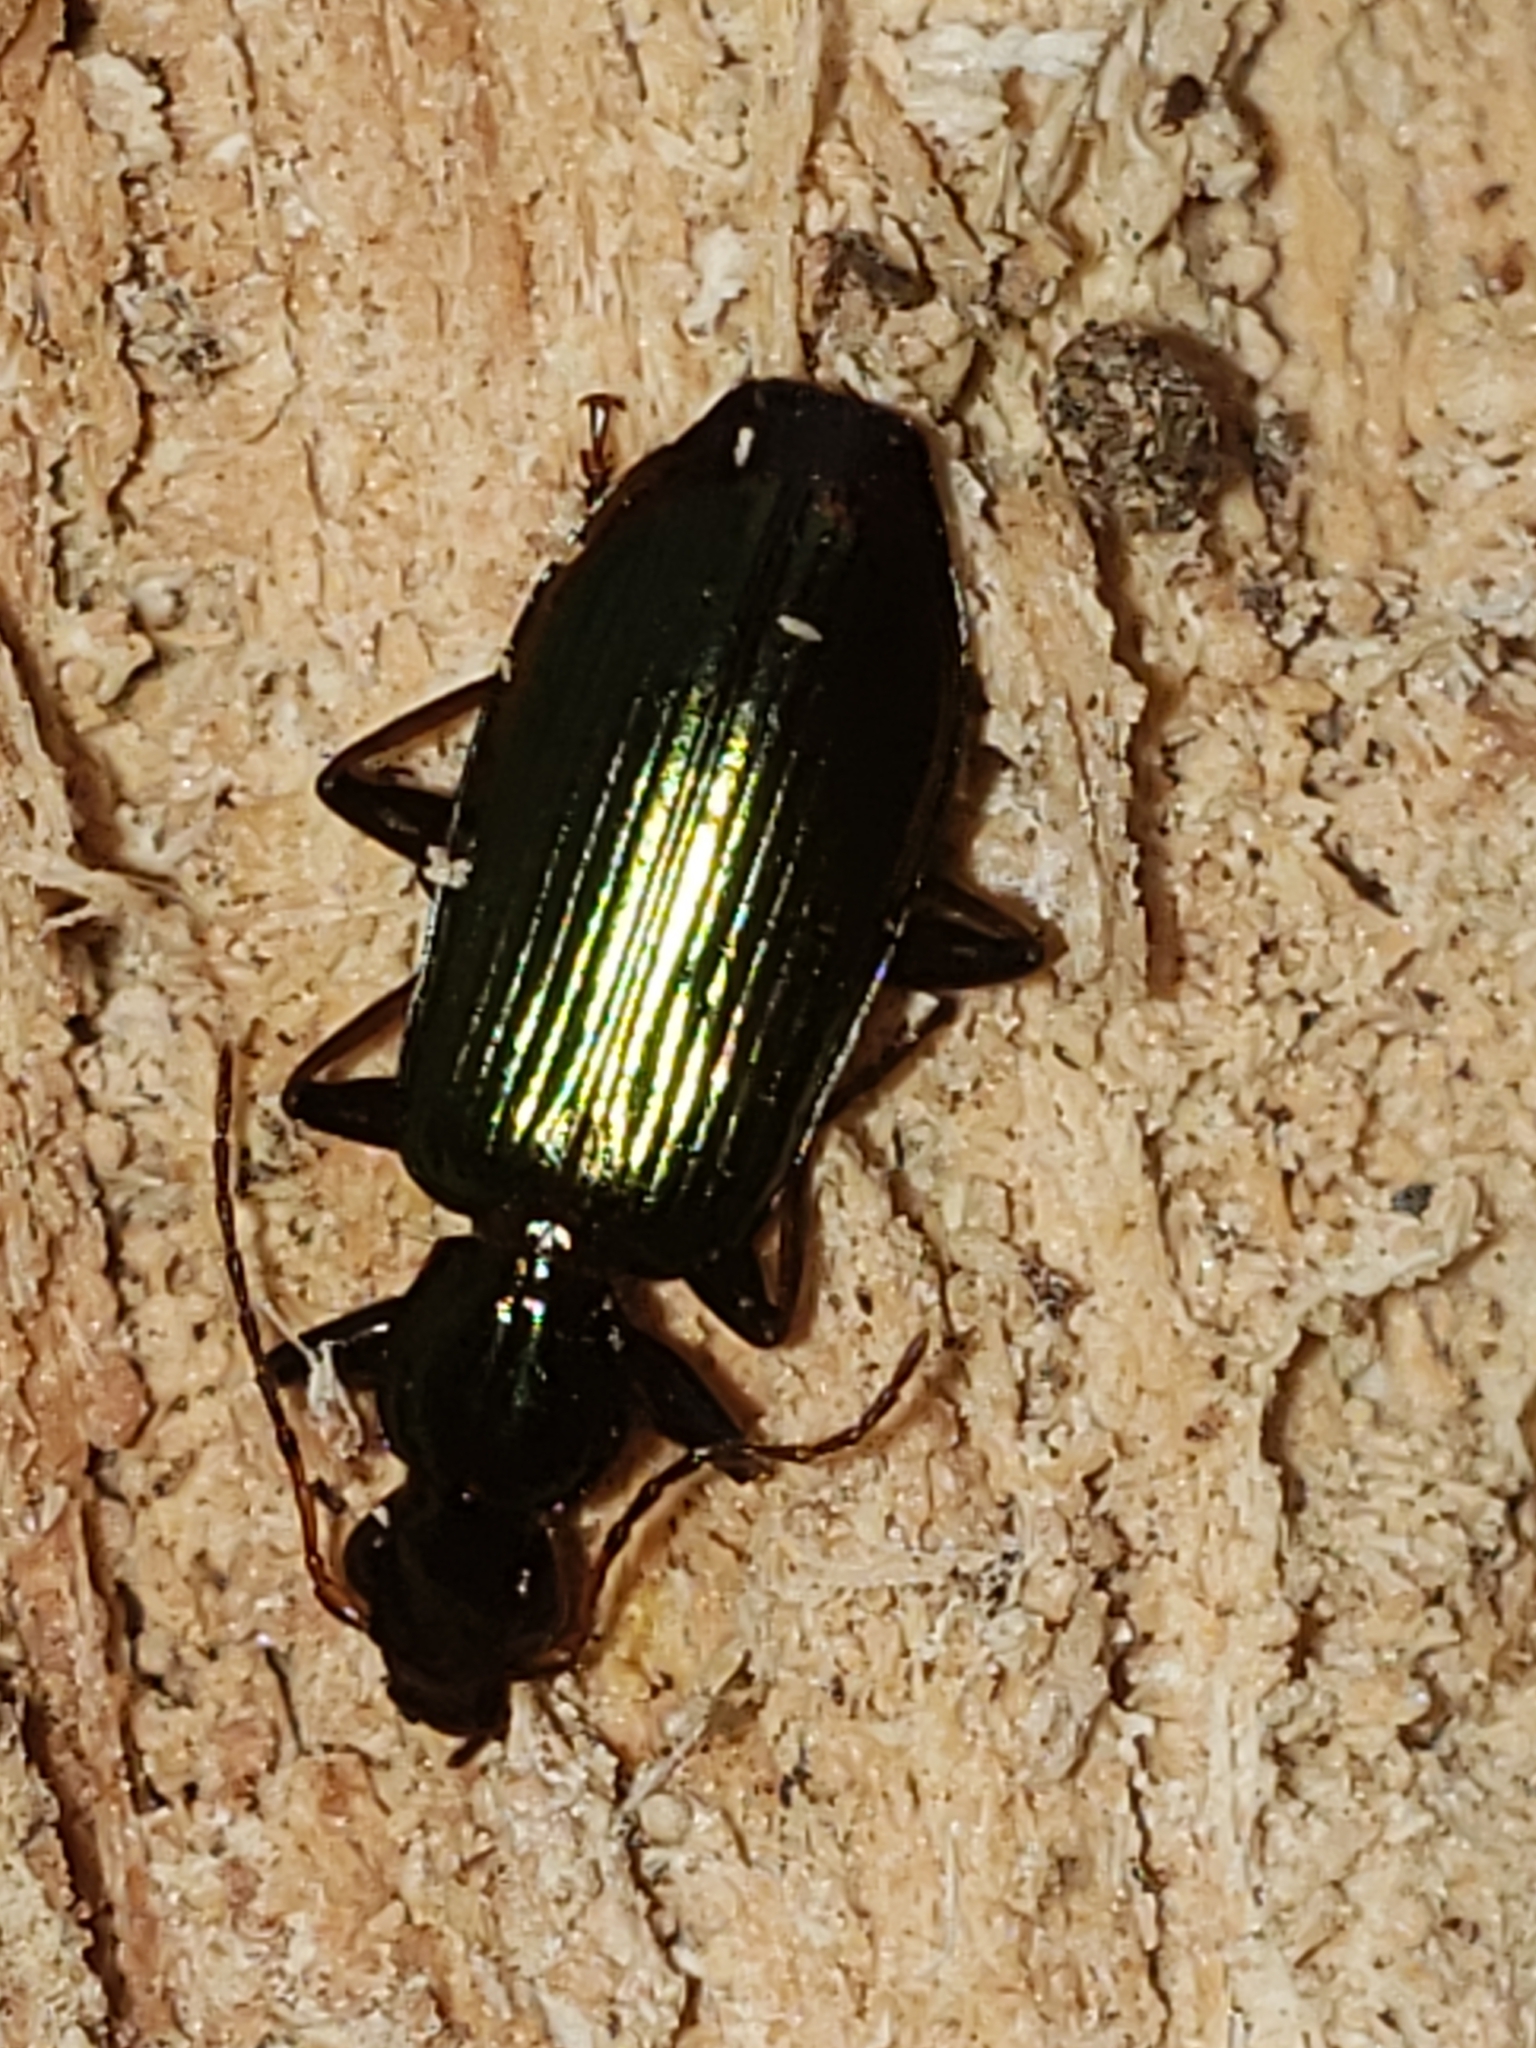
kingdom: Animalia
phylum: Arthropoda
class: Insecta
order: Coleoptera
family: Carabidae
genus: Calleida
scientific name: Calleida viridipennis
